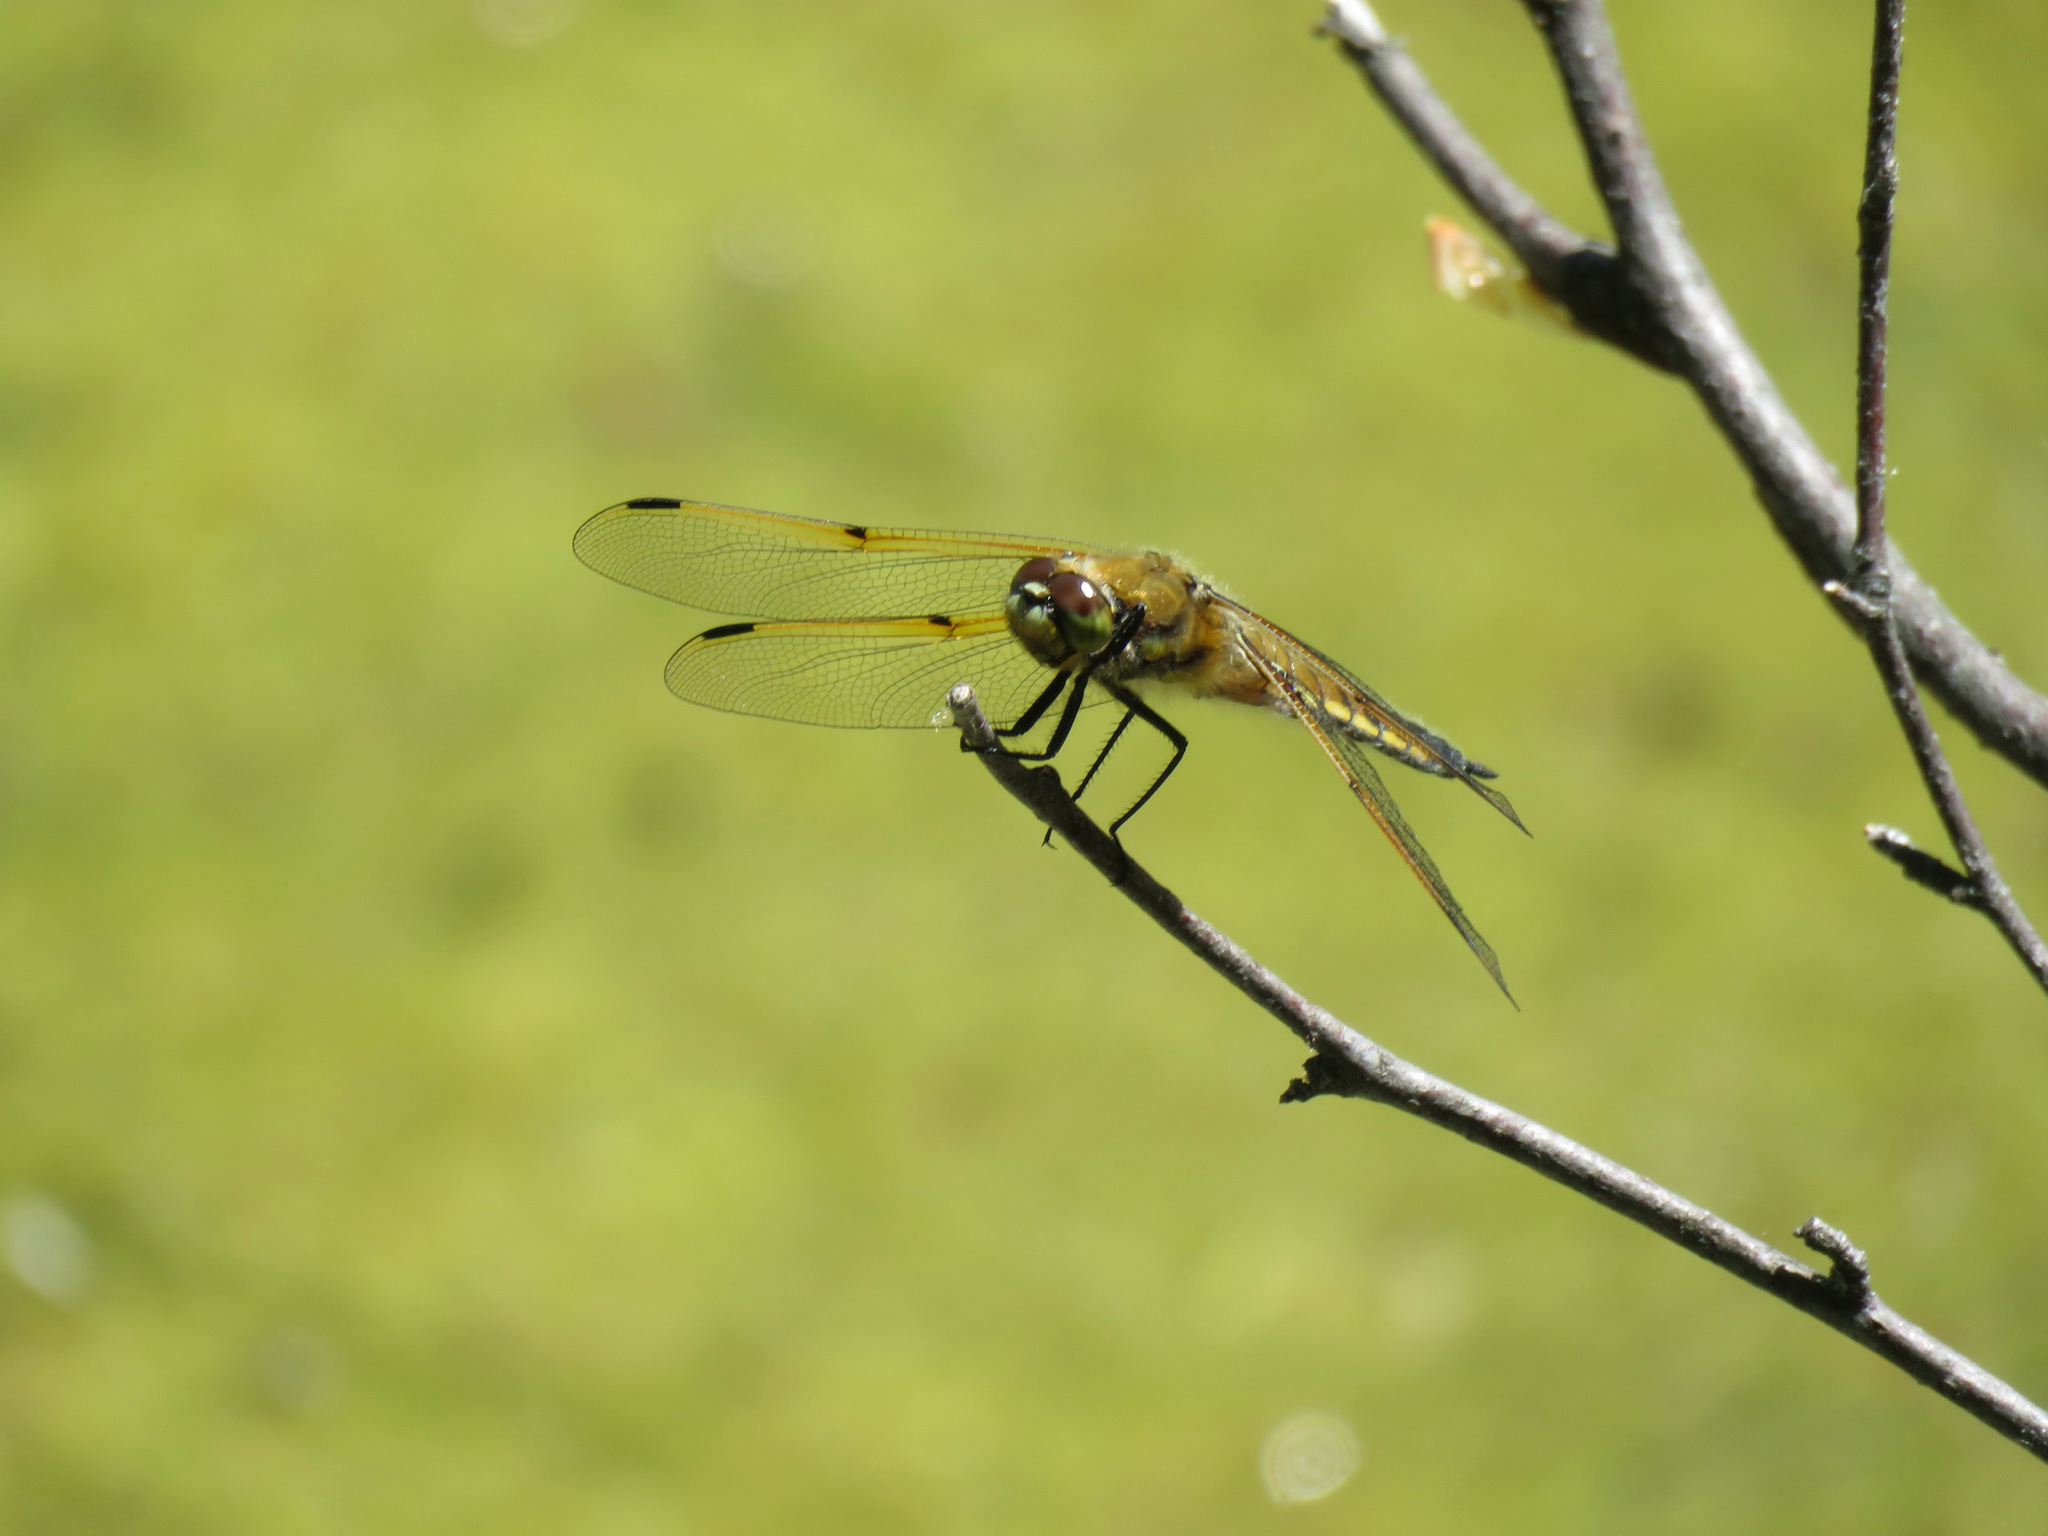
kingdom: Animalia
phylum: Arthropoda
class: Insecta
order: Odonata
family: Libellulidae
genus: Libellula
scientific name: Libellula quadrimaculata
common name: Four-spotted chaser
